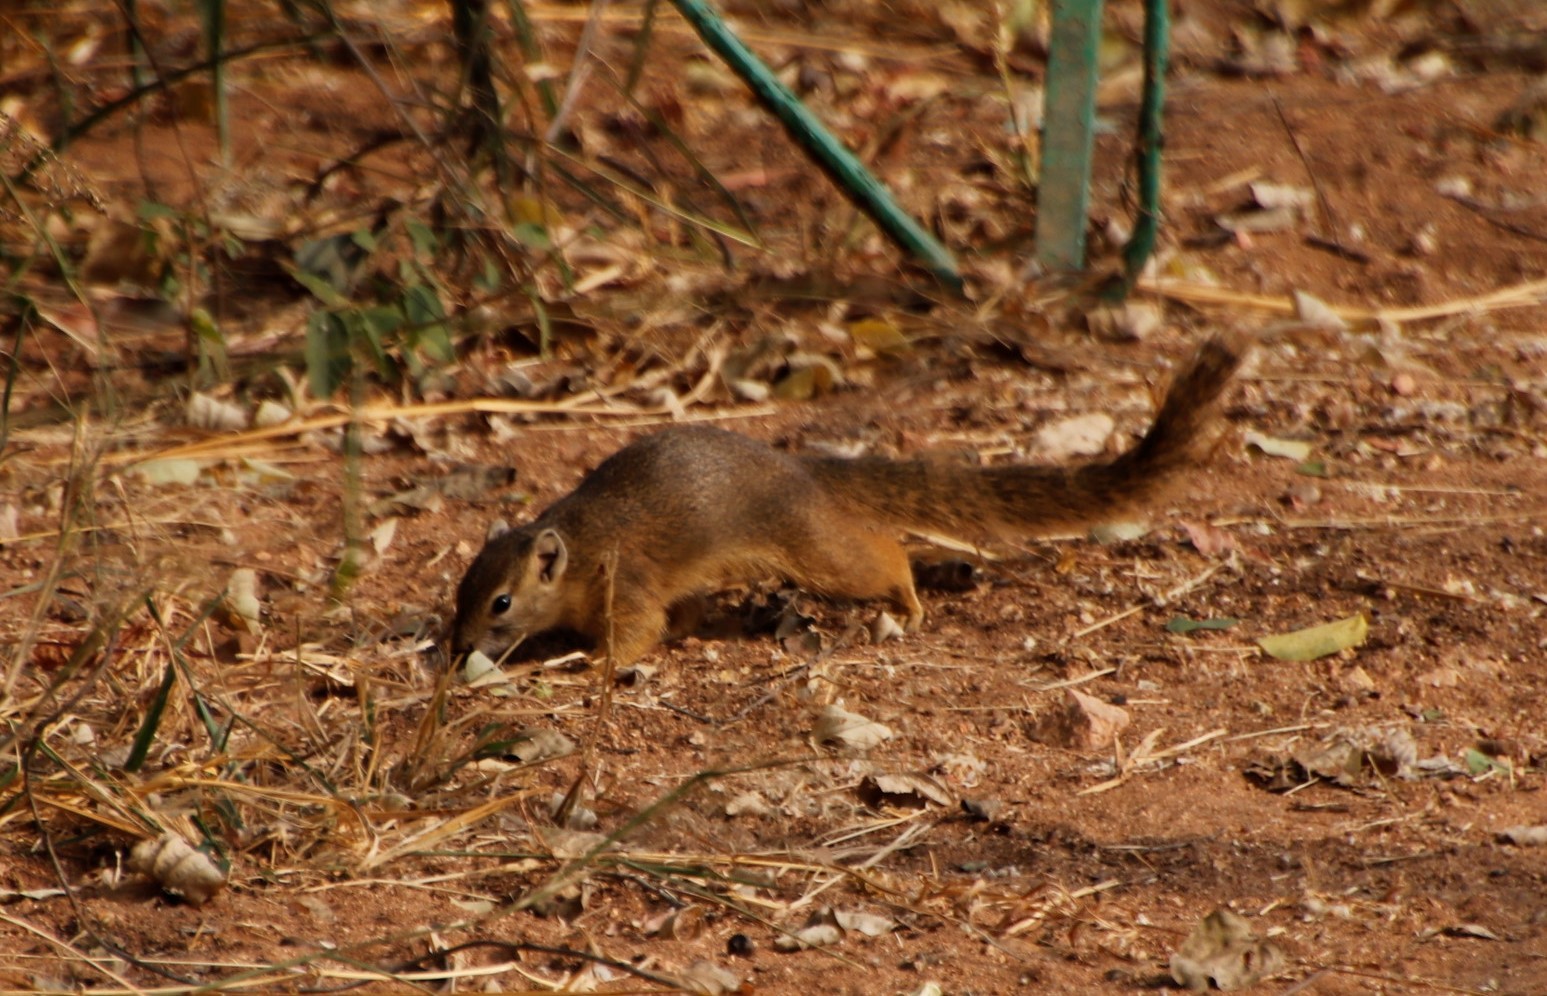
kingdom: Animalia
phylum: Chordata
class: Mammalia
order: Rodentia
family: Sciuridae
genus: Paraxerus
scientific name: Paraxerus cepapi
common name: Smith's bush squirrel
